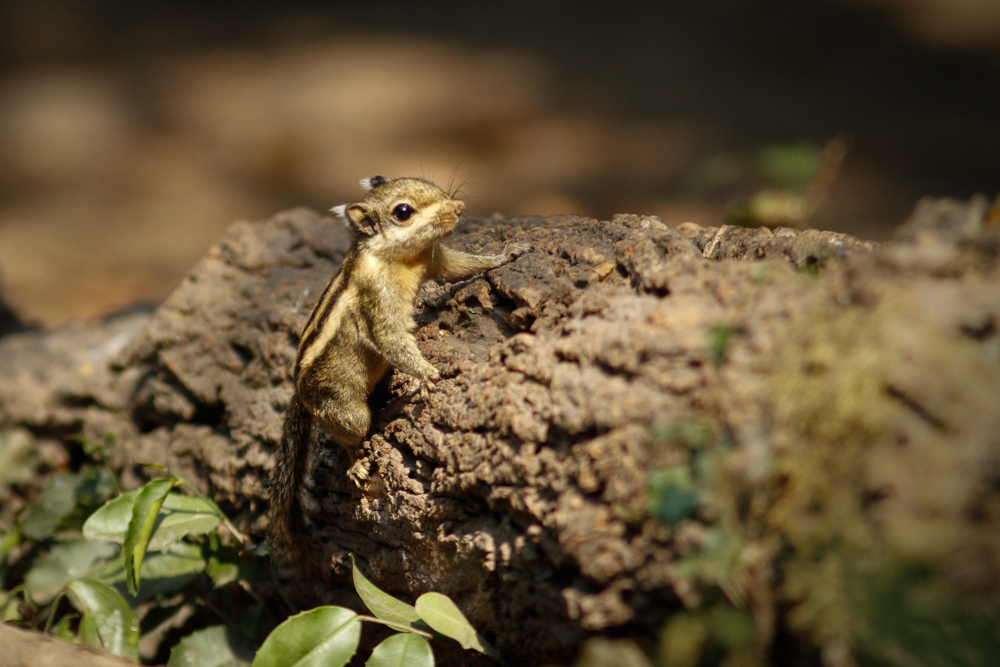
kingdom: Animalia
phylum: Chordata
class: Mammalia
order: Rodentia
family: Sciuridae
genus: Tamiops
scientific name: Tamiops mcclellandii
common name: Himalayan striped squirrel
